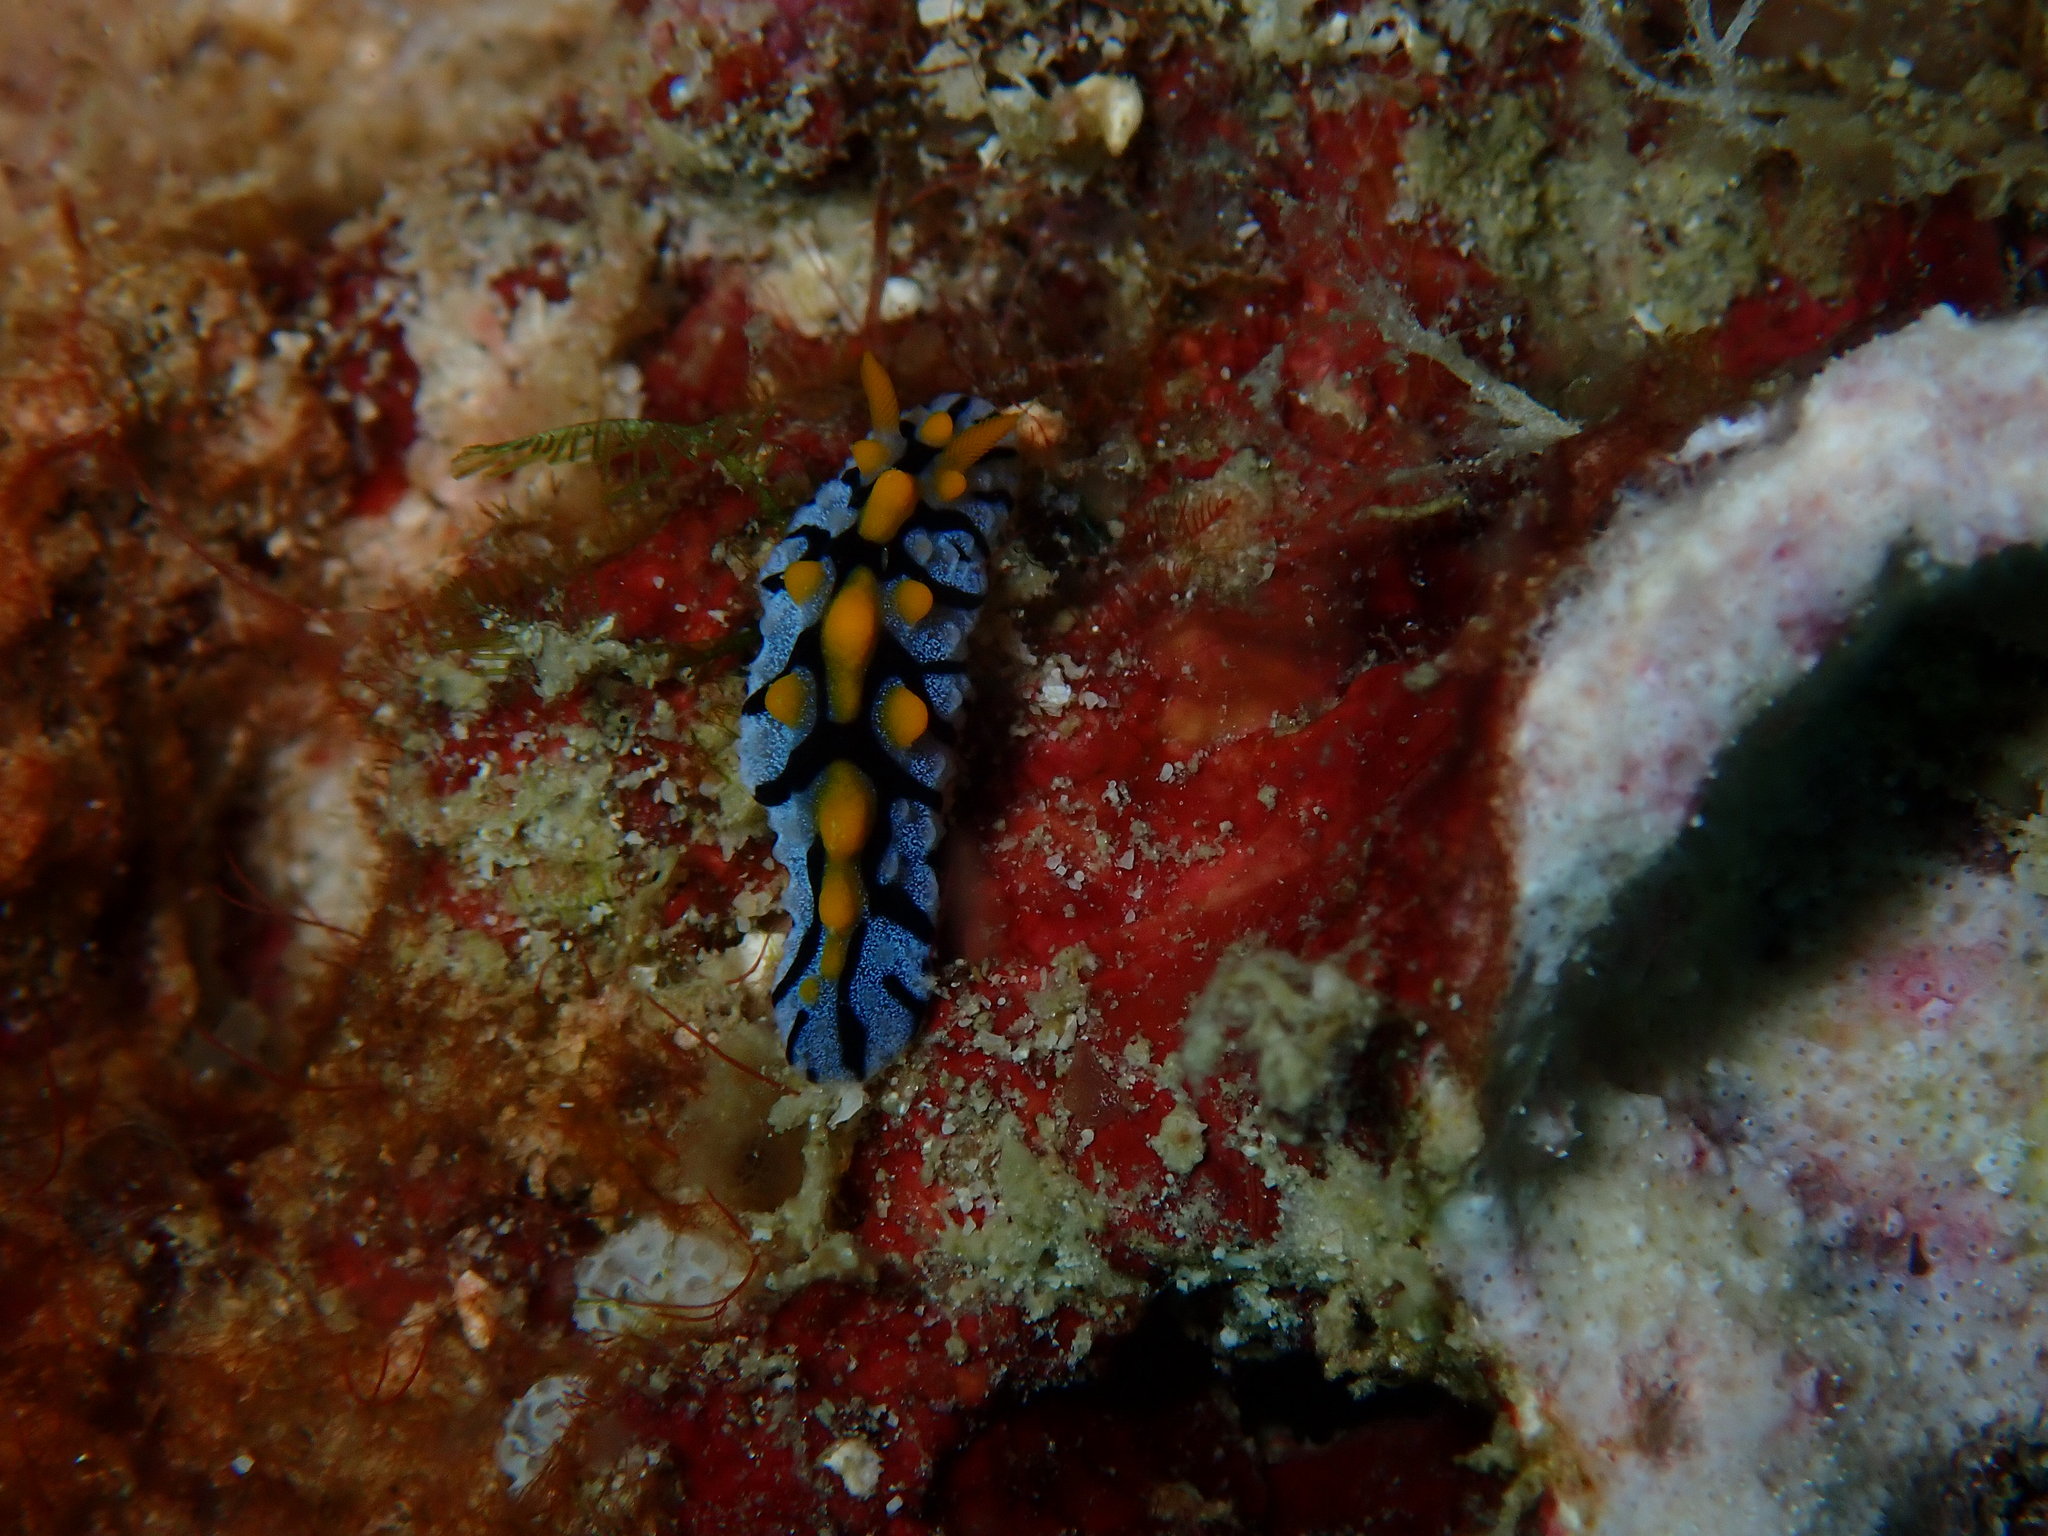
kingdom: Animalia
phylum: Mollusca
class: Gastropoda
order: Nudibranchia
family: Phyllidiidae
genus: Phyllidia
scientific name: Phyllidia marindica
